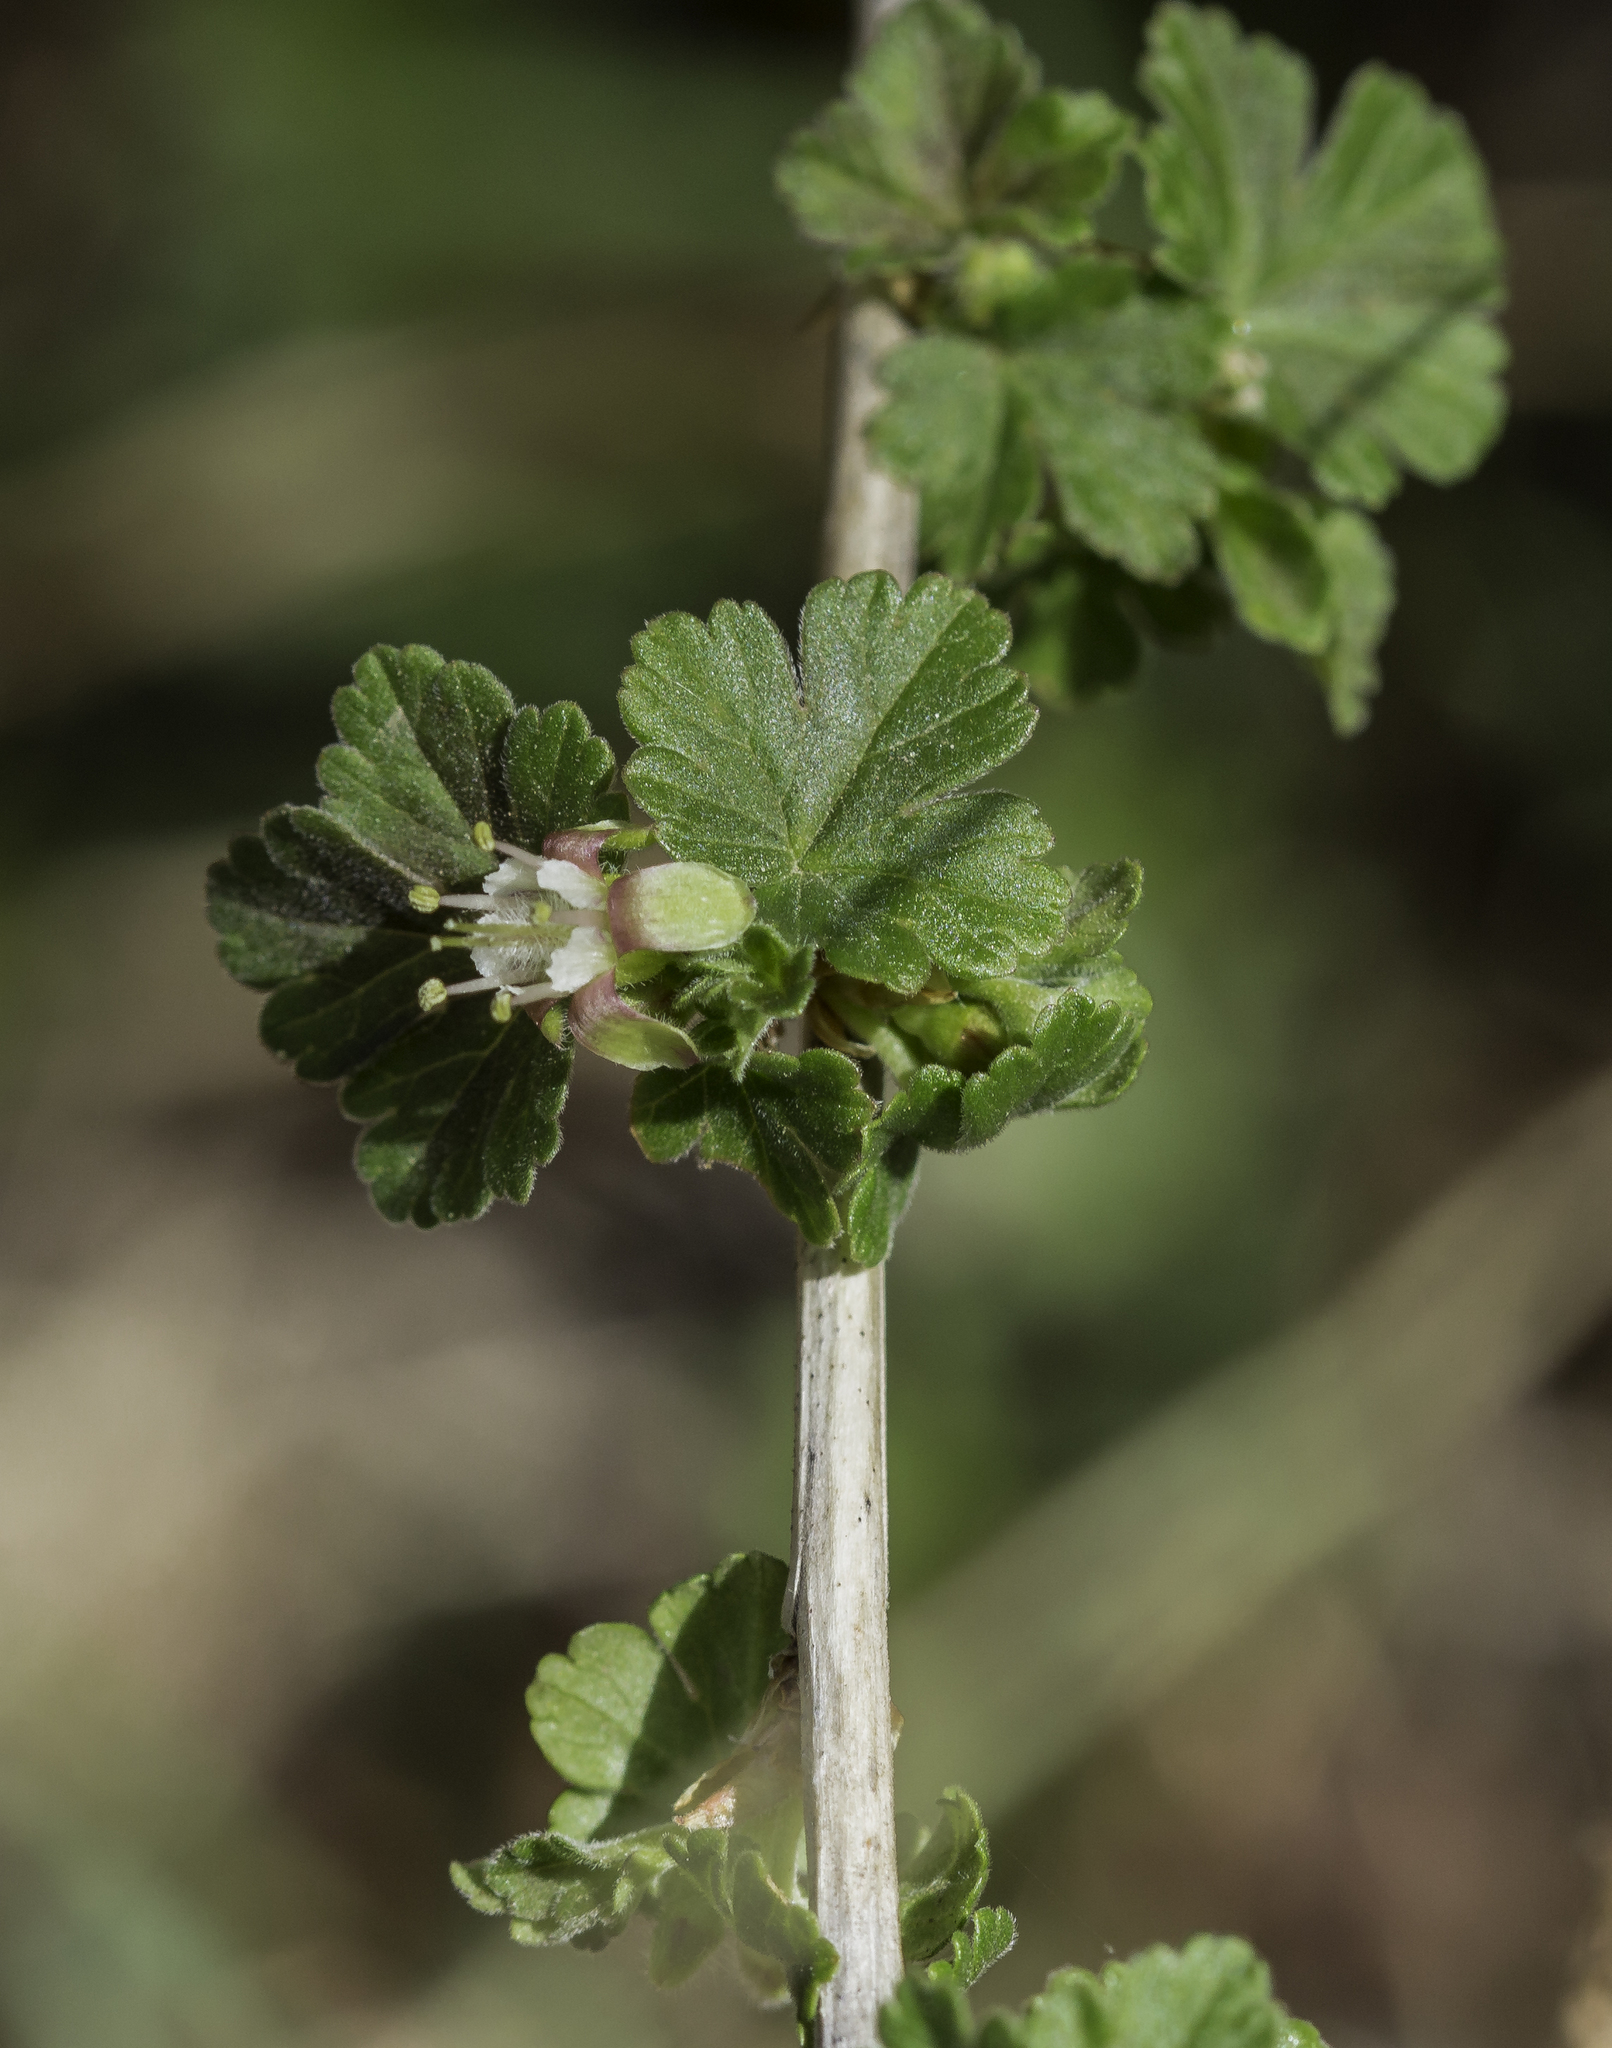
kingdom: Plantae
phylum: Tracheophyta
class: Magnoliopsida
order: Saxifragales
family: Grossulariaceae
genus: Ribes
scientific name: Ribes inerme
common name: White-stem gooseberry
